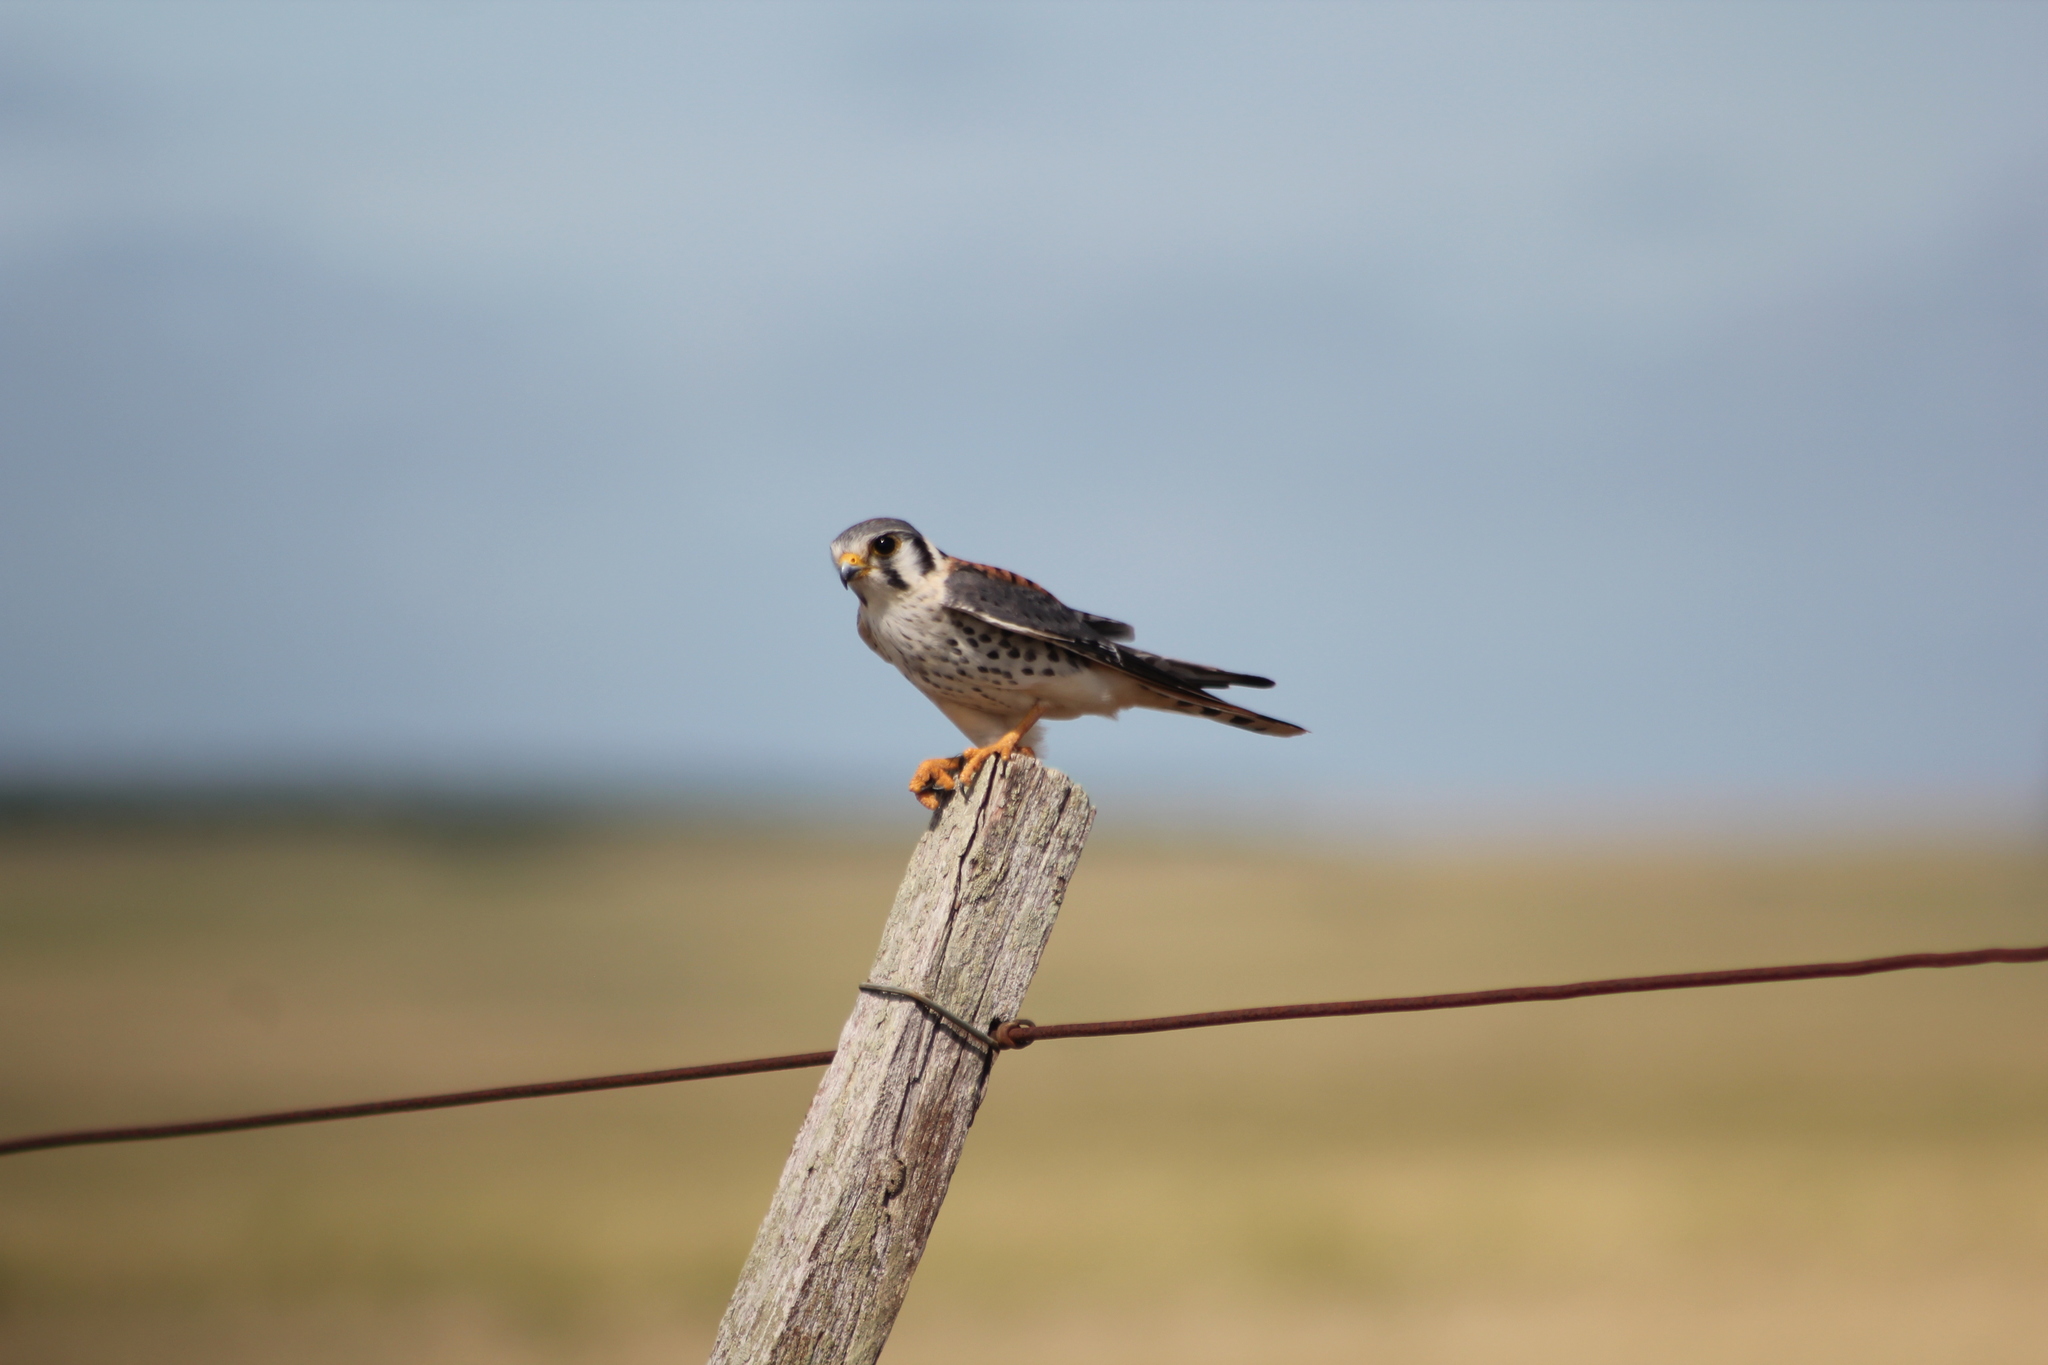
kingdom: Animalia
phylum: Chordata
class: Aves
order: Falconiformes
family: Falconidae
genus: Falco
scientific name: Falco sparverius
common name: American kestrel
